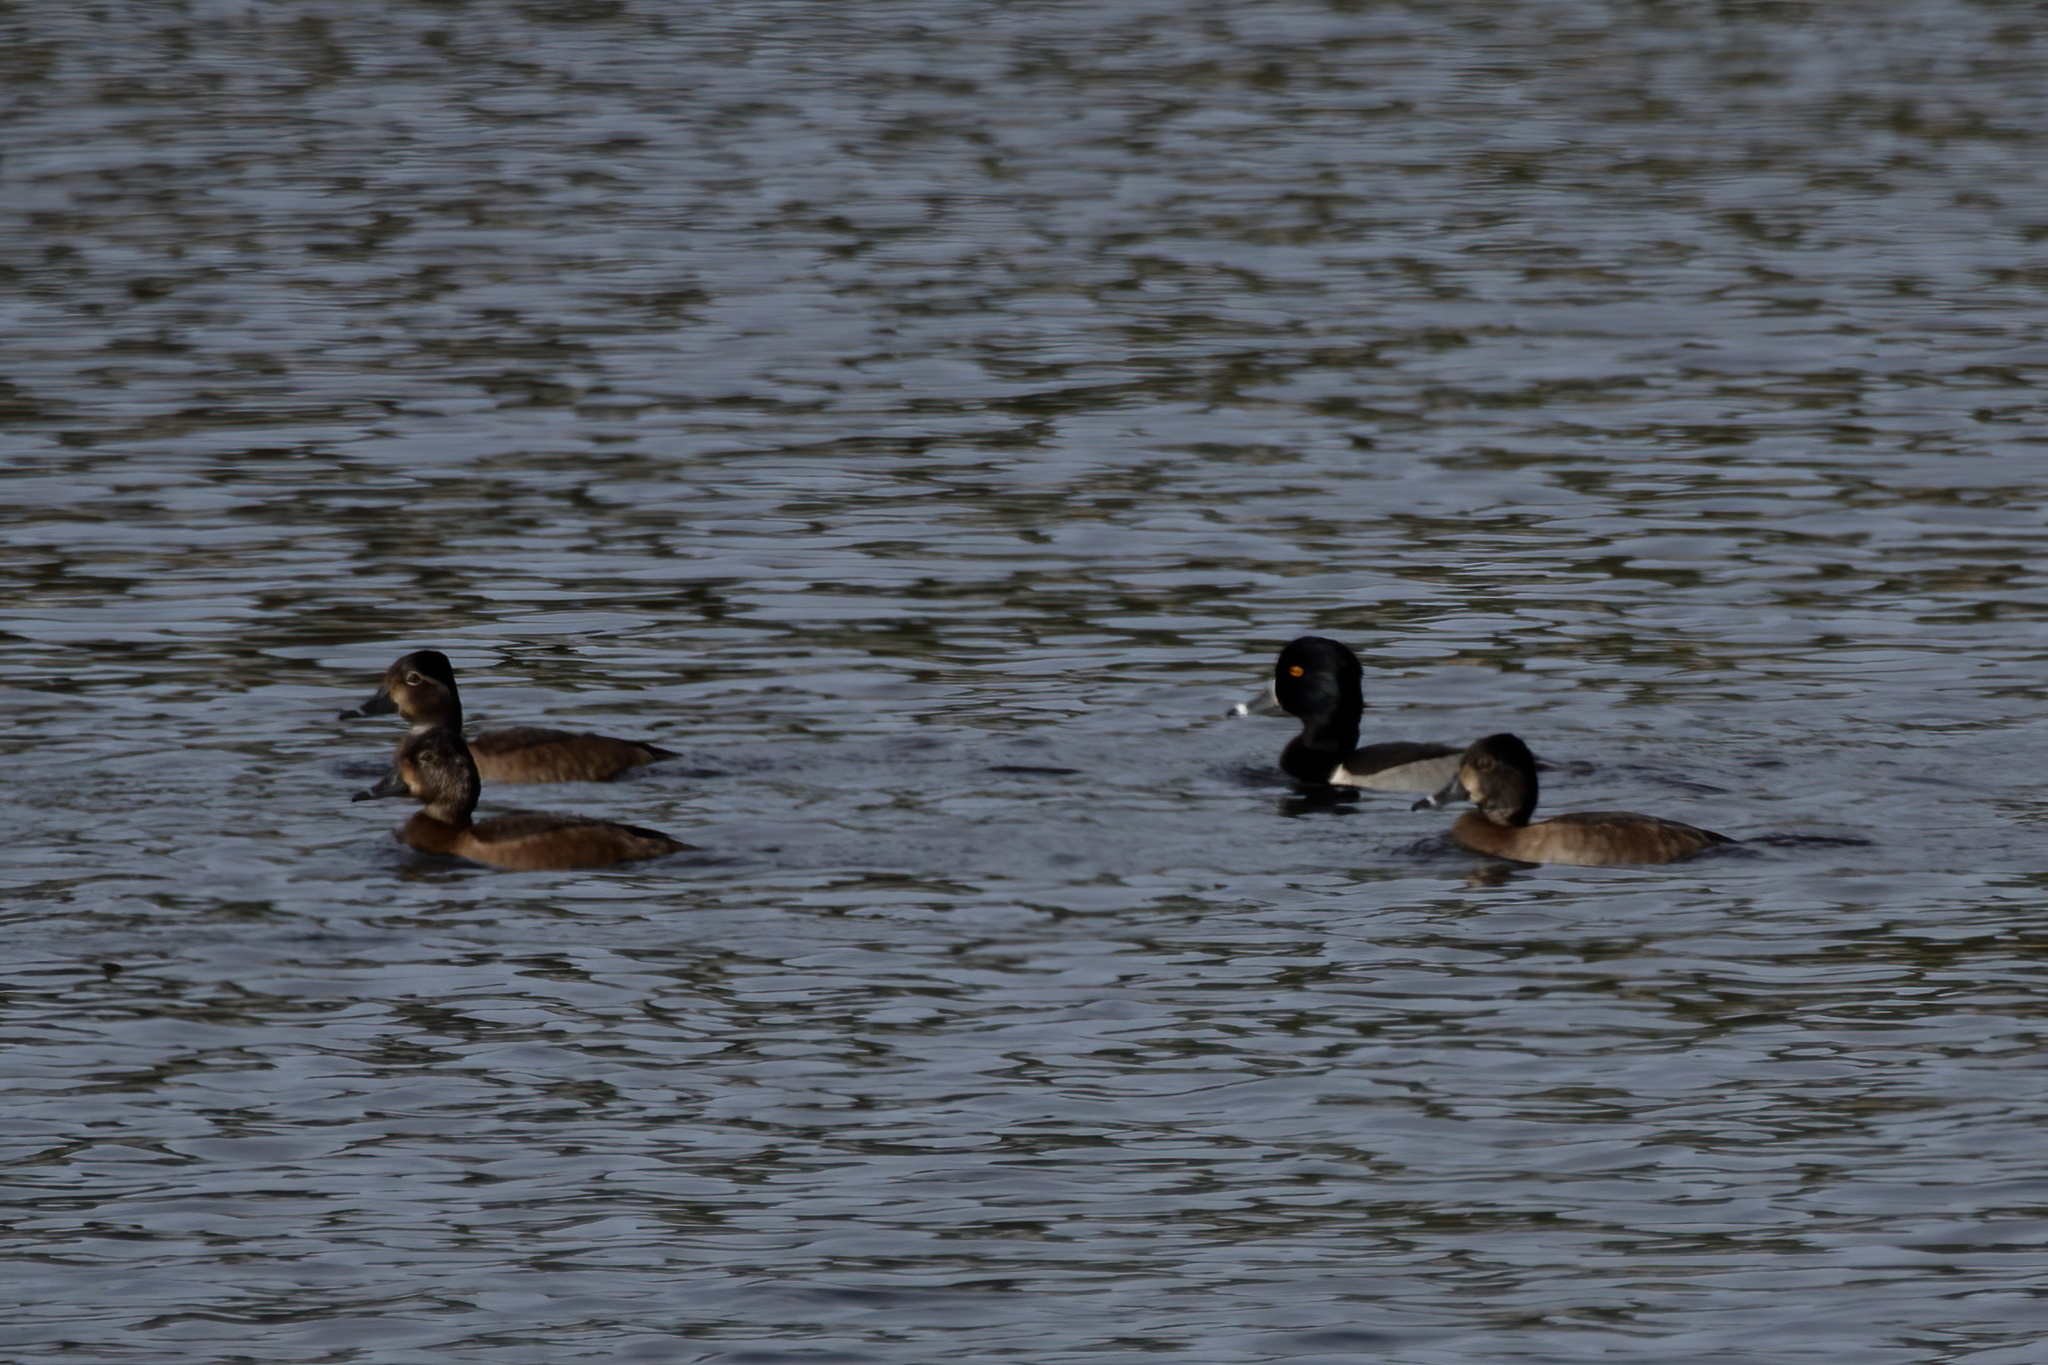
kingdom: Animalia
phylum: Chordata
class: Aves
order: Anseriformes
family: Anatidae
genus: Aythya
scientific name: Aythya collaris
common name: Ring-necked duck
